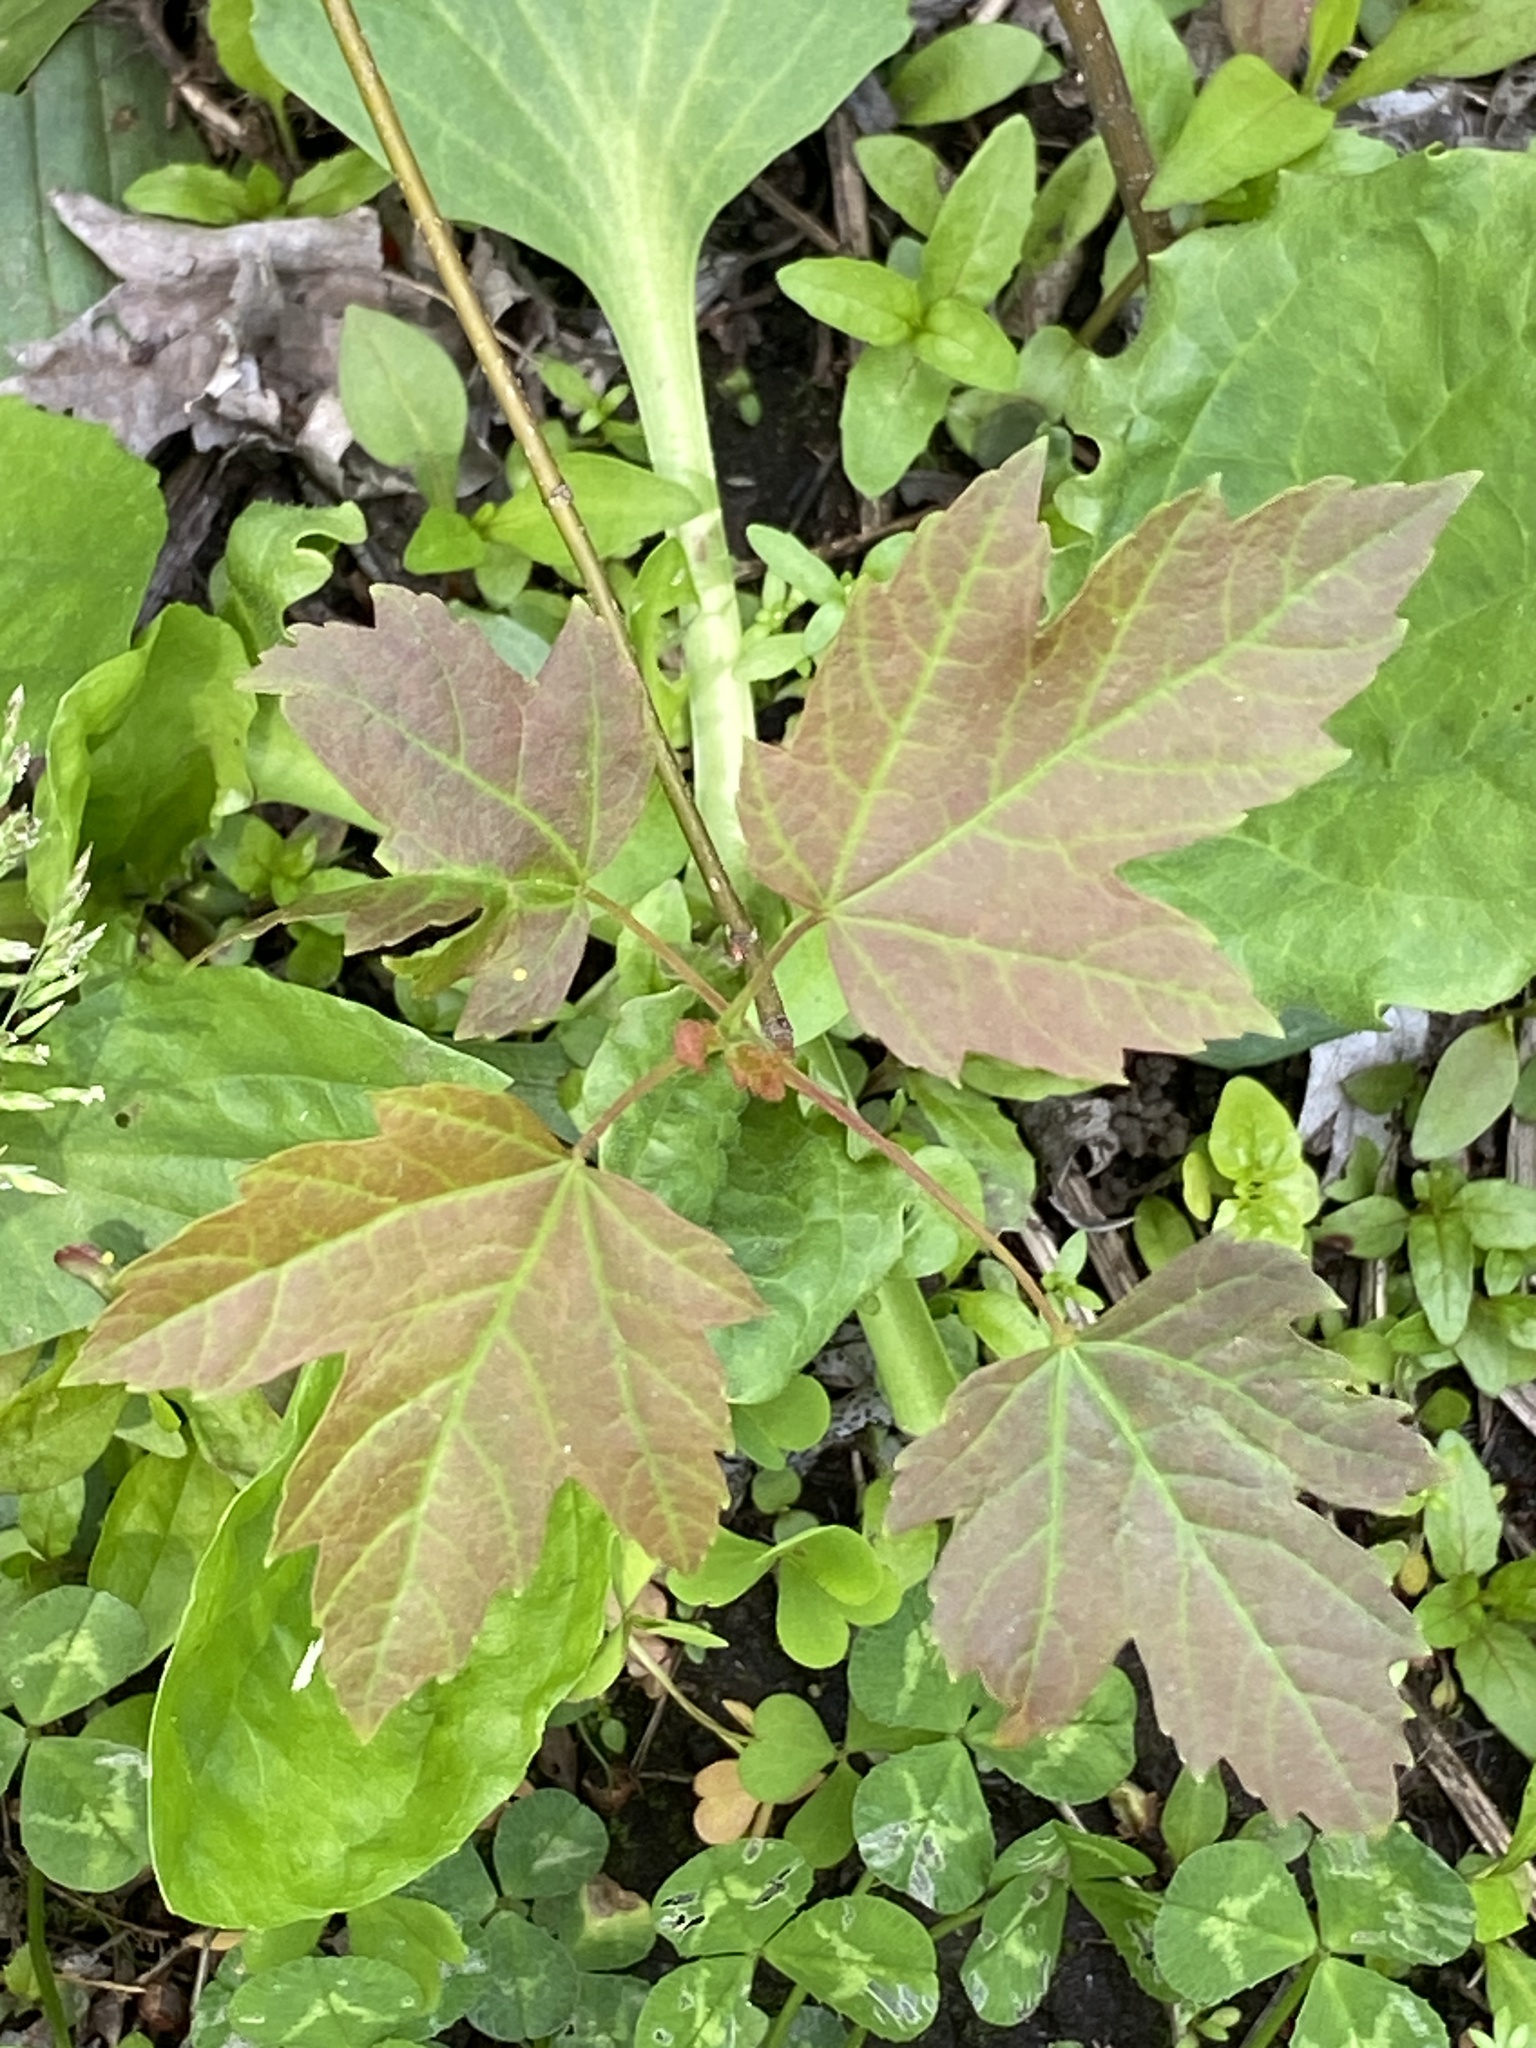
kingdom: Plantae
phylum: Tracheophyta
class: Magnoliopsida
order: Sapindales
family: Sapindaceae
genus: Acer
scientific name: Acer rubrum
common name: Red maple
